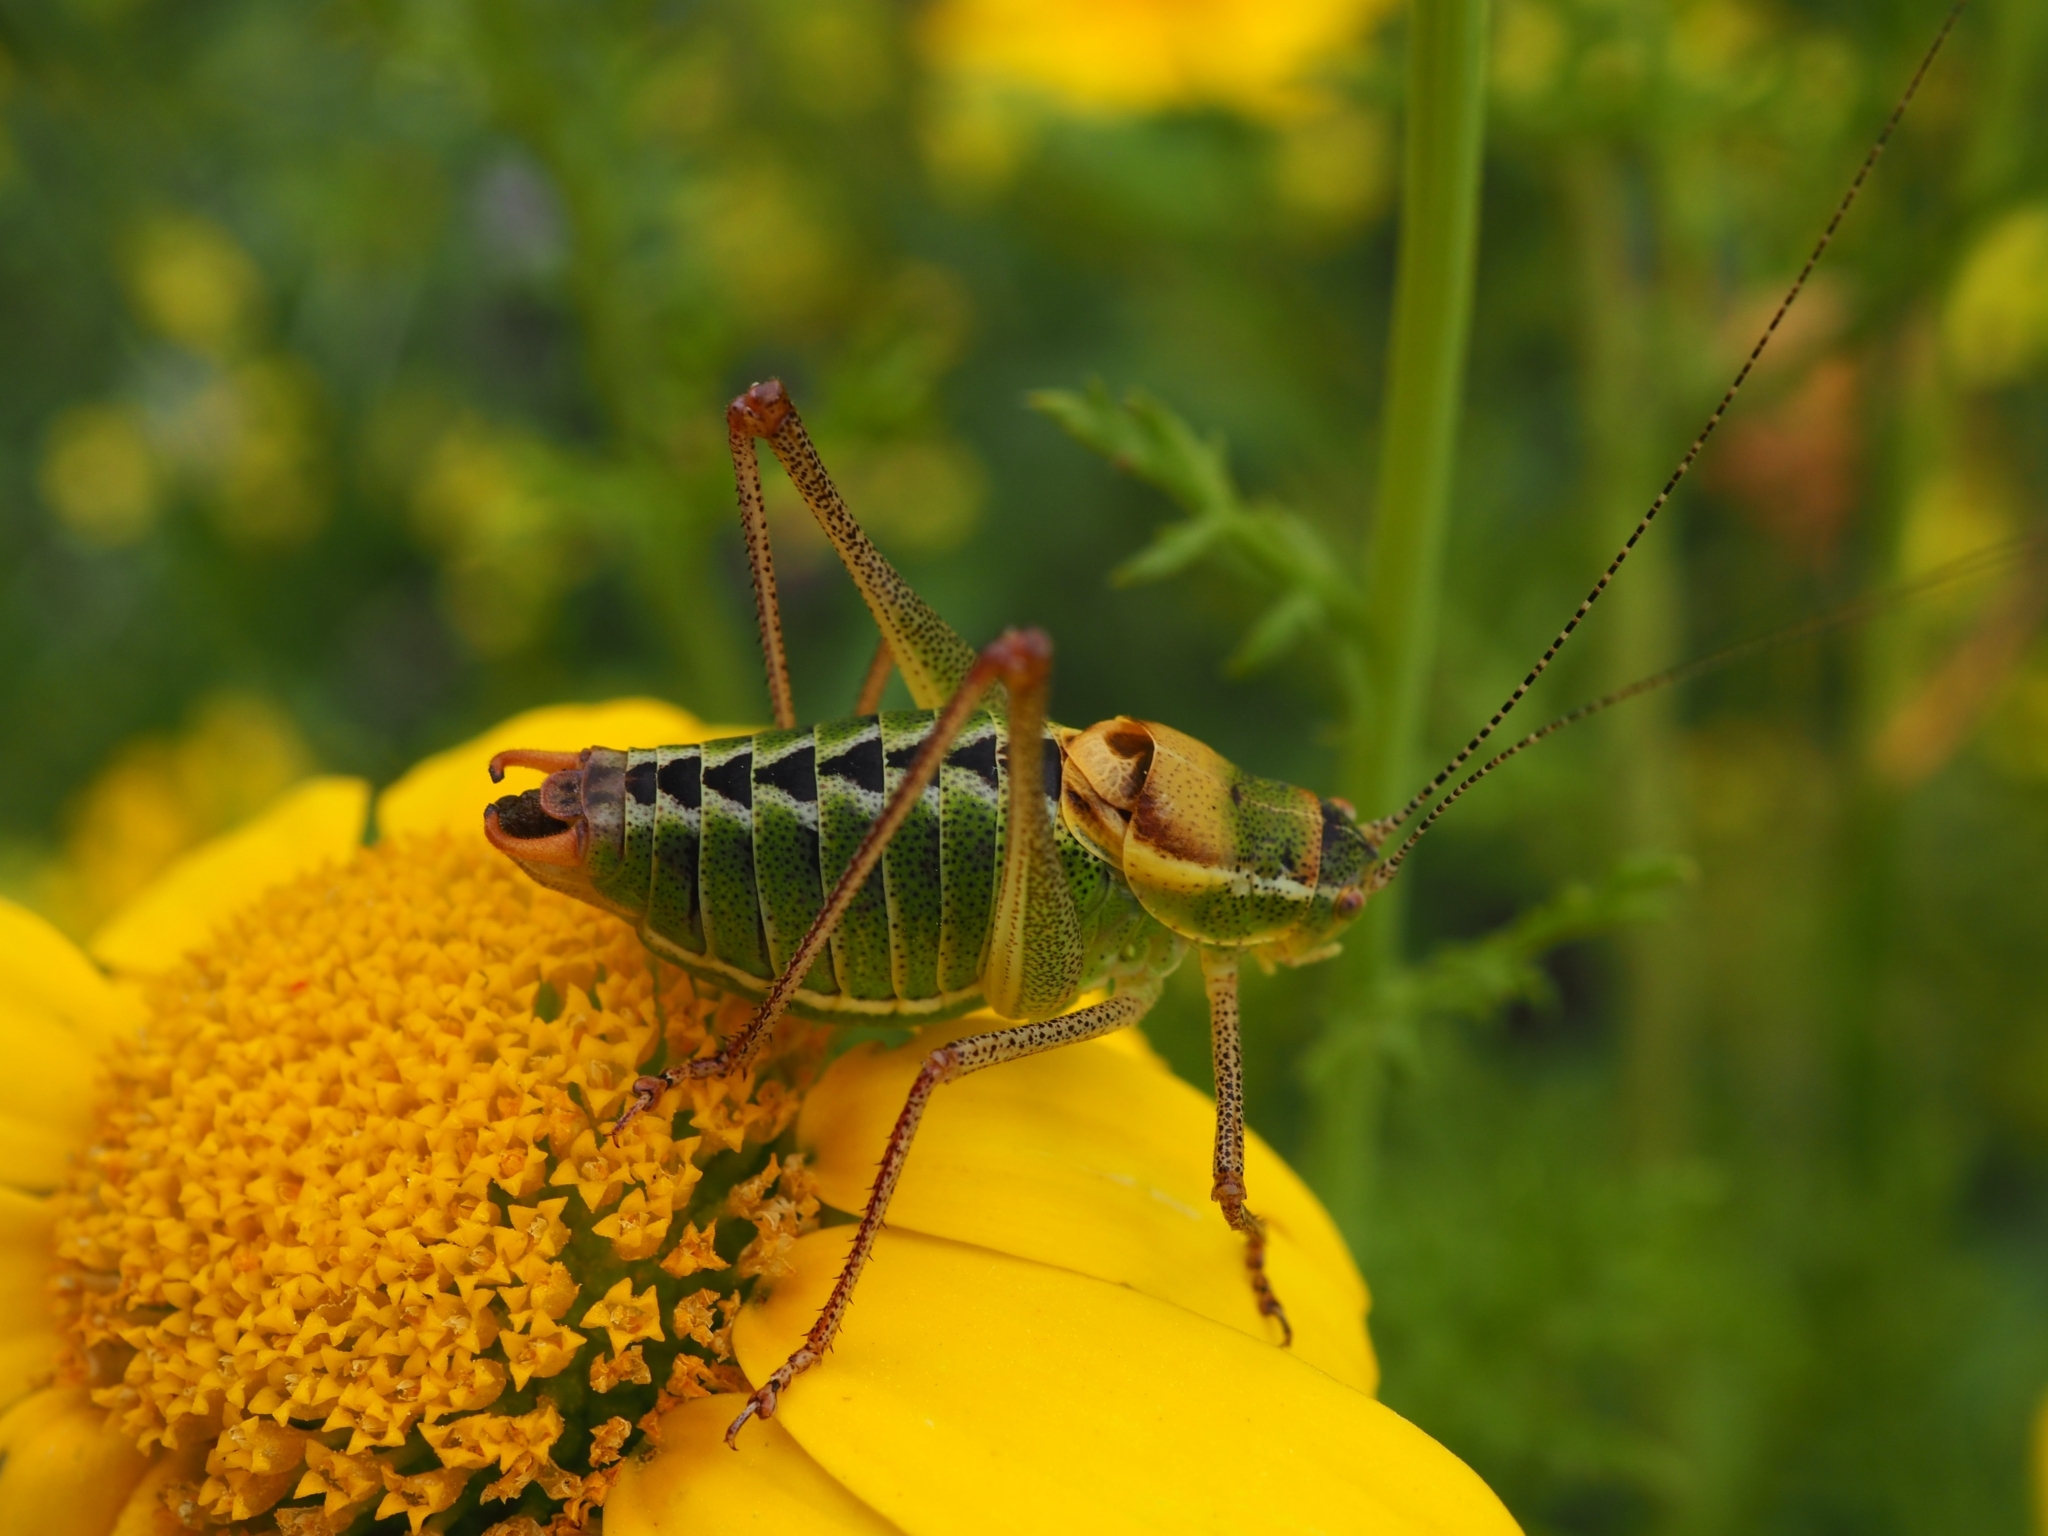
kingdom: Animalia
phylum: Arthropoda
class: Insecta
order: Orthoptera
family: Tettigoniidae
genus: Poecilimon
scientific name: Poecilimon zimmeri
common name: Zimmer's bright bush-cricket
